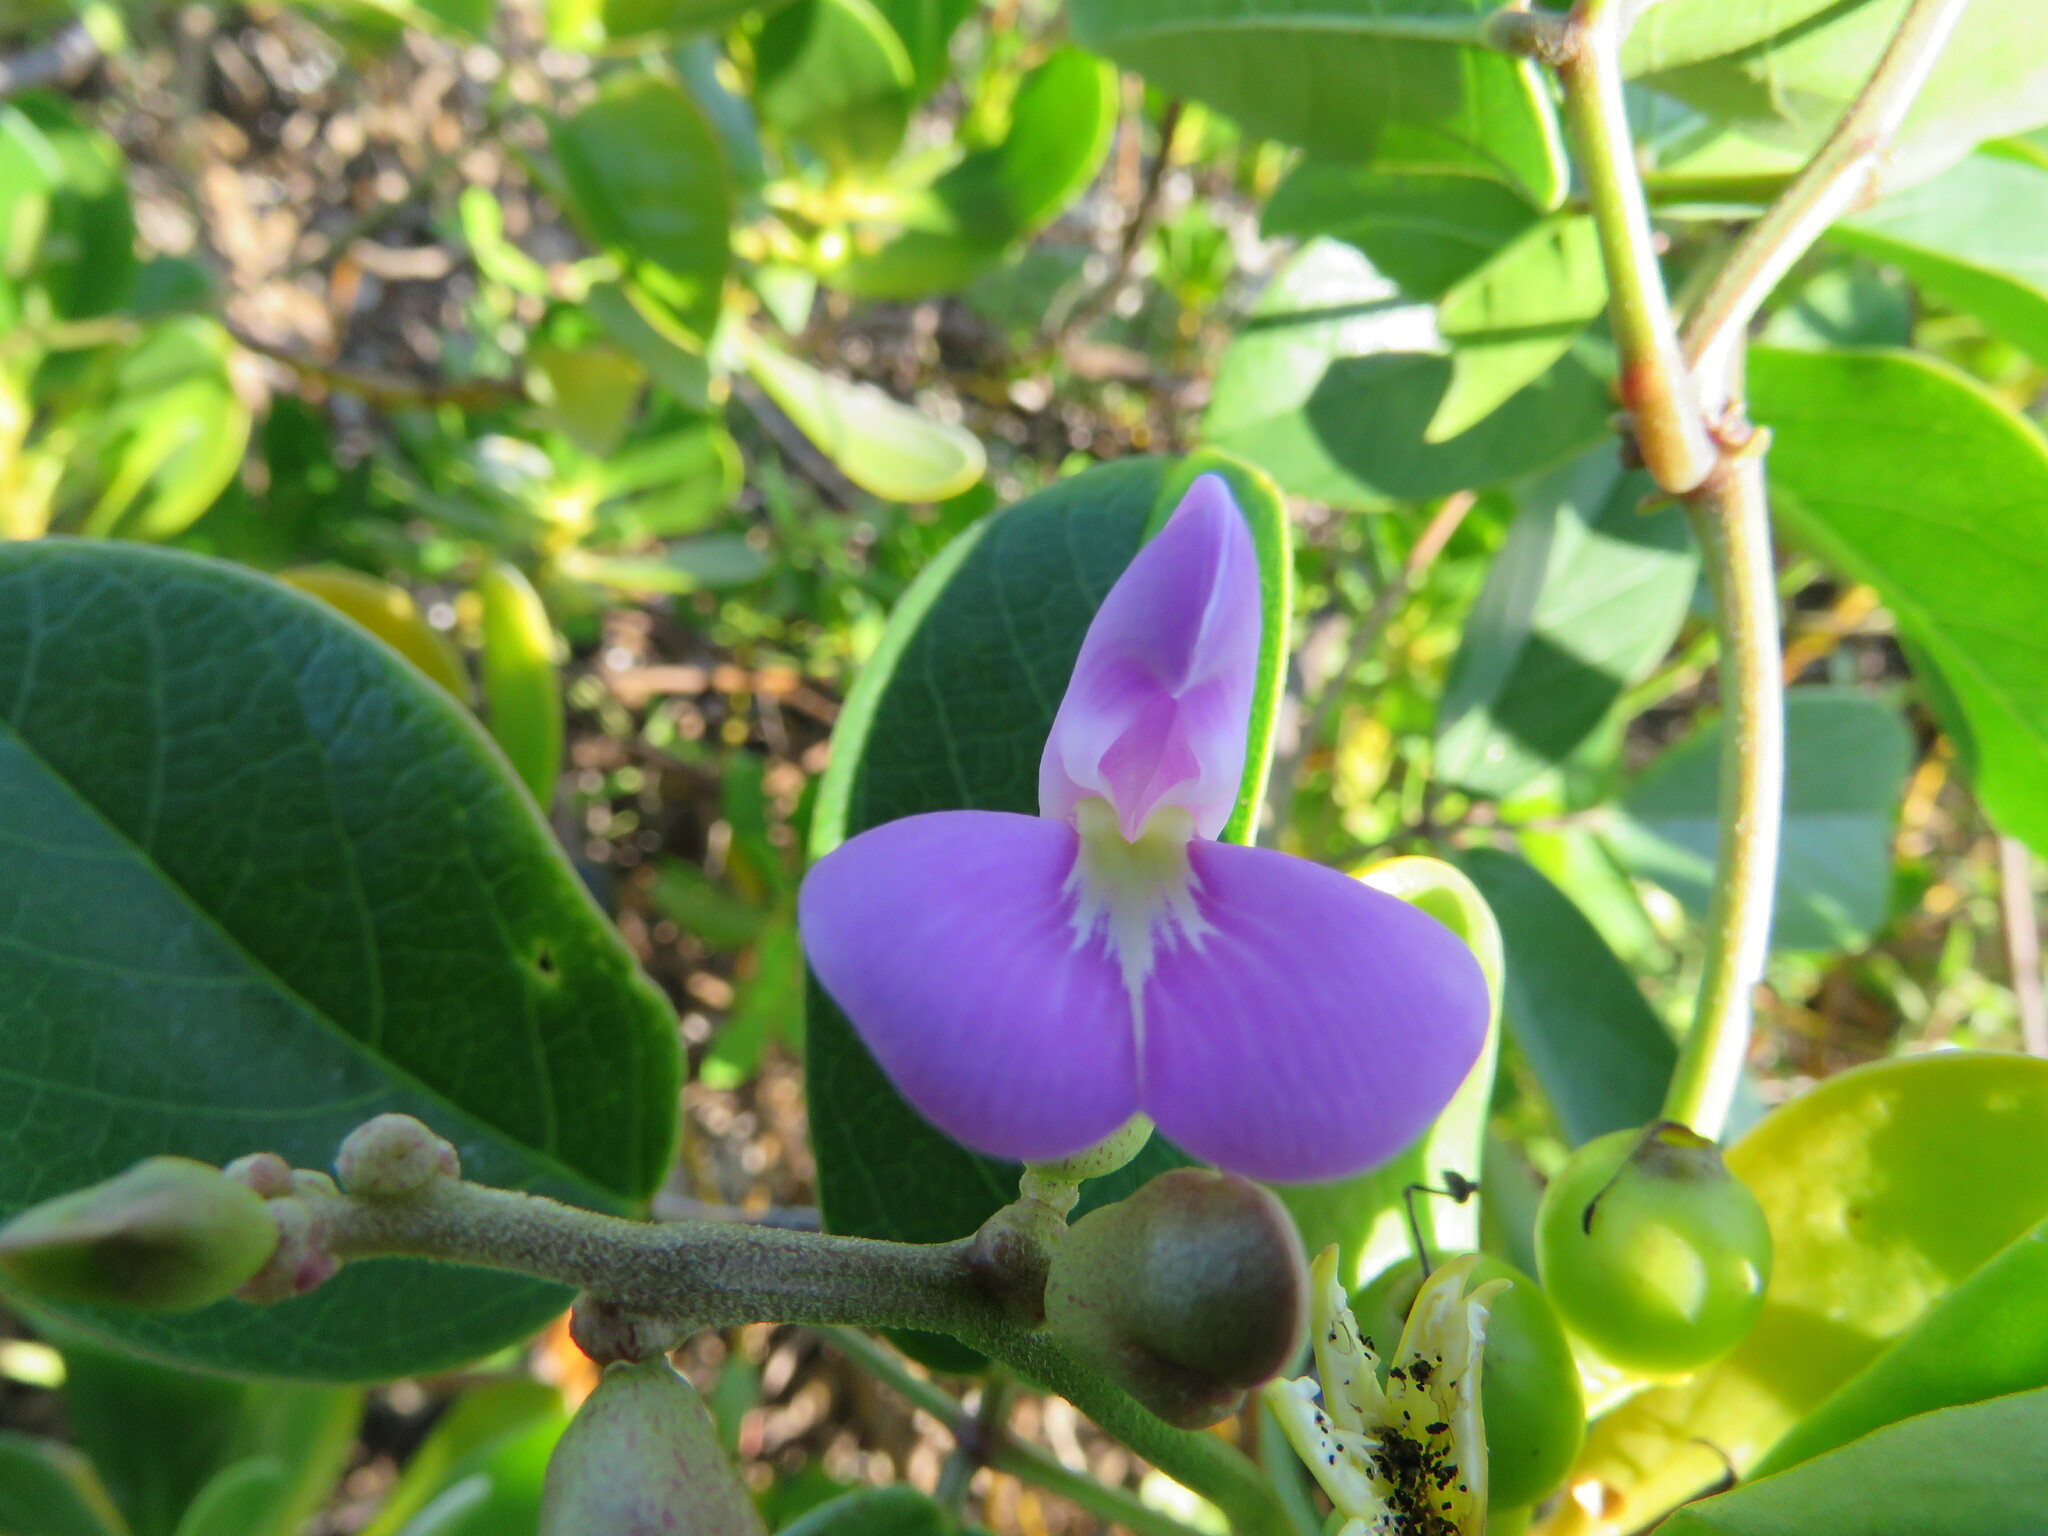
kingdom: Plantae
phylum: Tracheophyta
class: Magnoliopsida
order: Fabales
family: Fabaceae
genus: Canavalia
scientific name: Canavalia rosea
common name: Beach-bean
